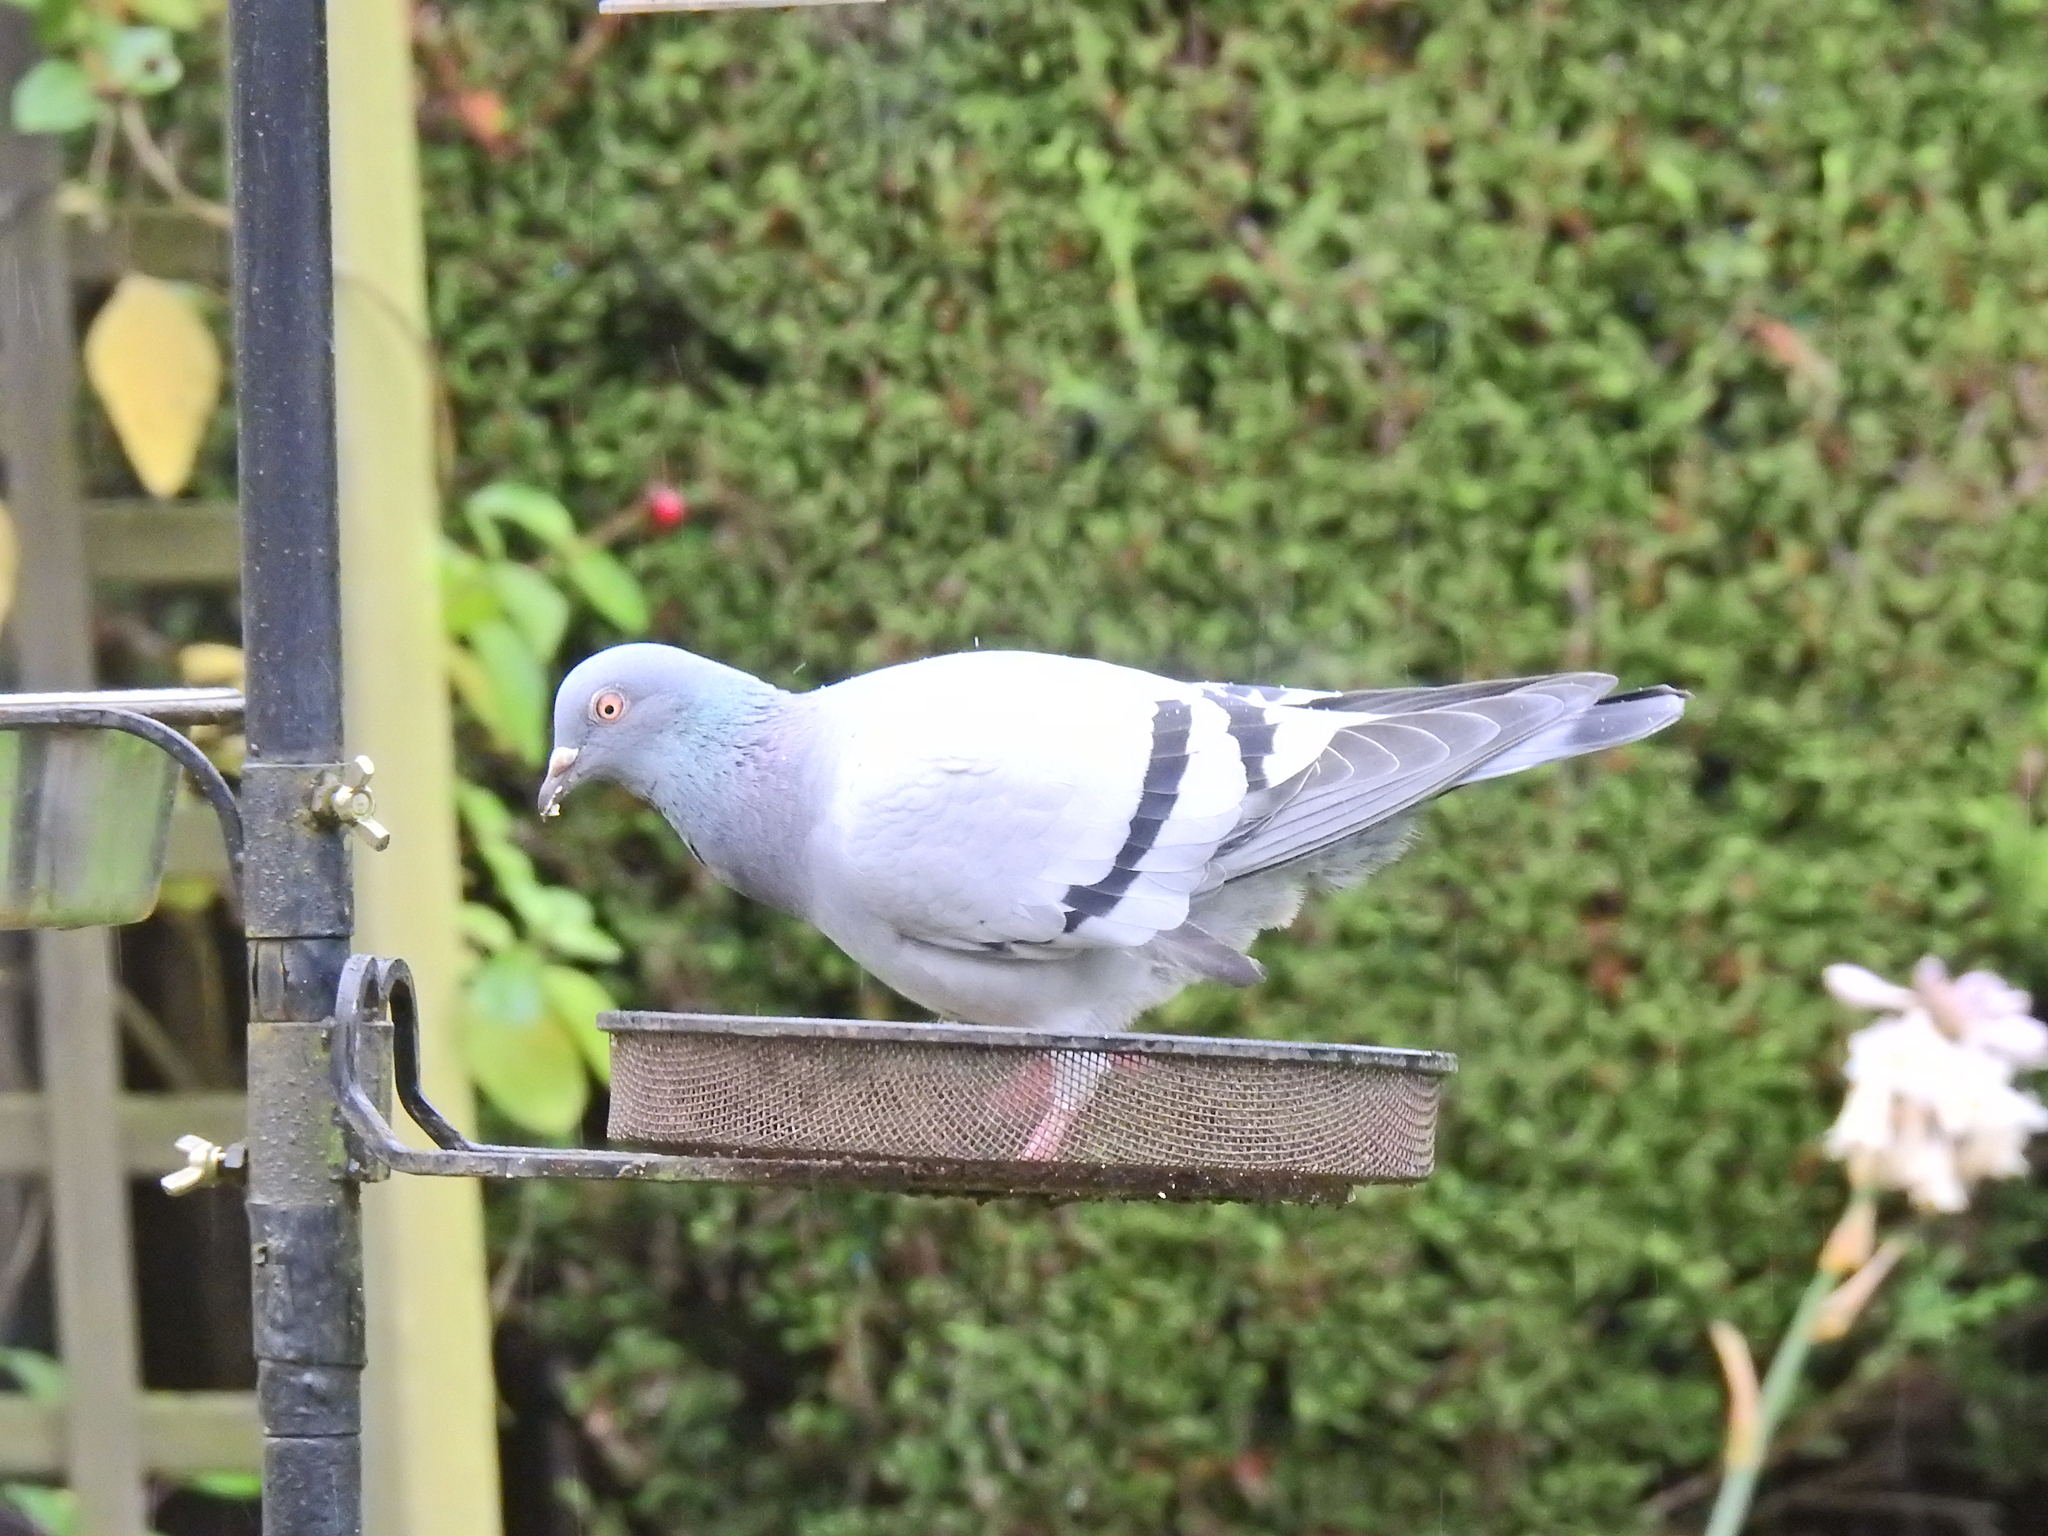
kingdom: Animalia
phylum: Chordata
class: Aves
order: Columbiformes
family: Columbidae
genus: Columba
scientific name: Columba livia
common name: Rock pigeon
